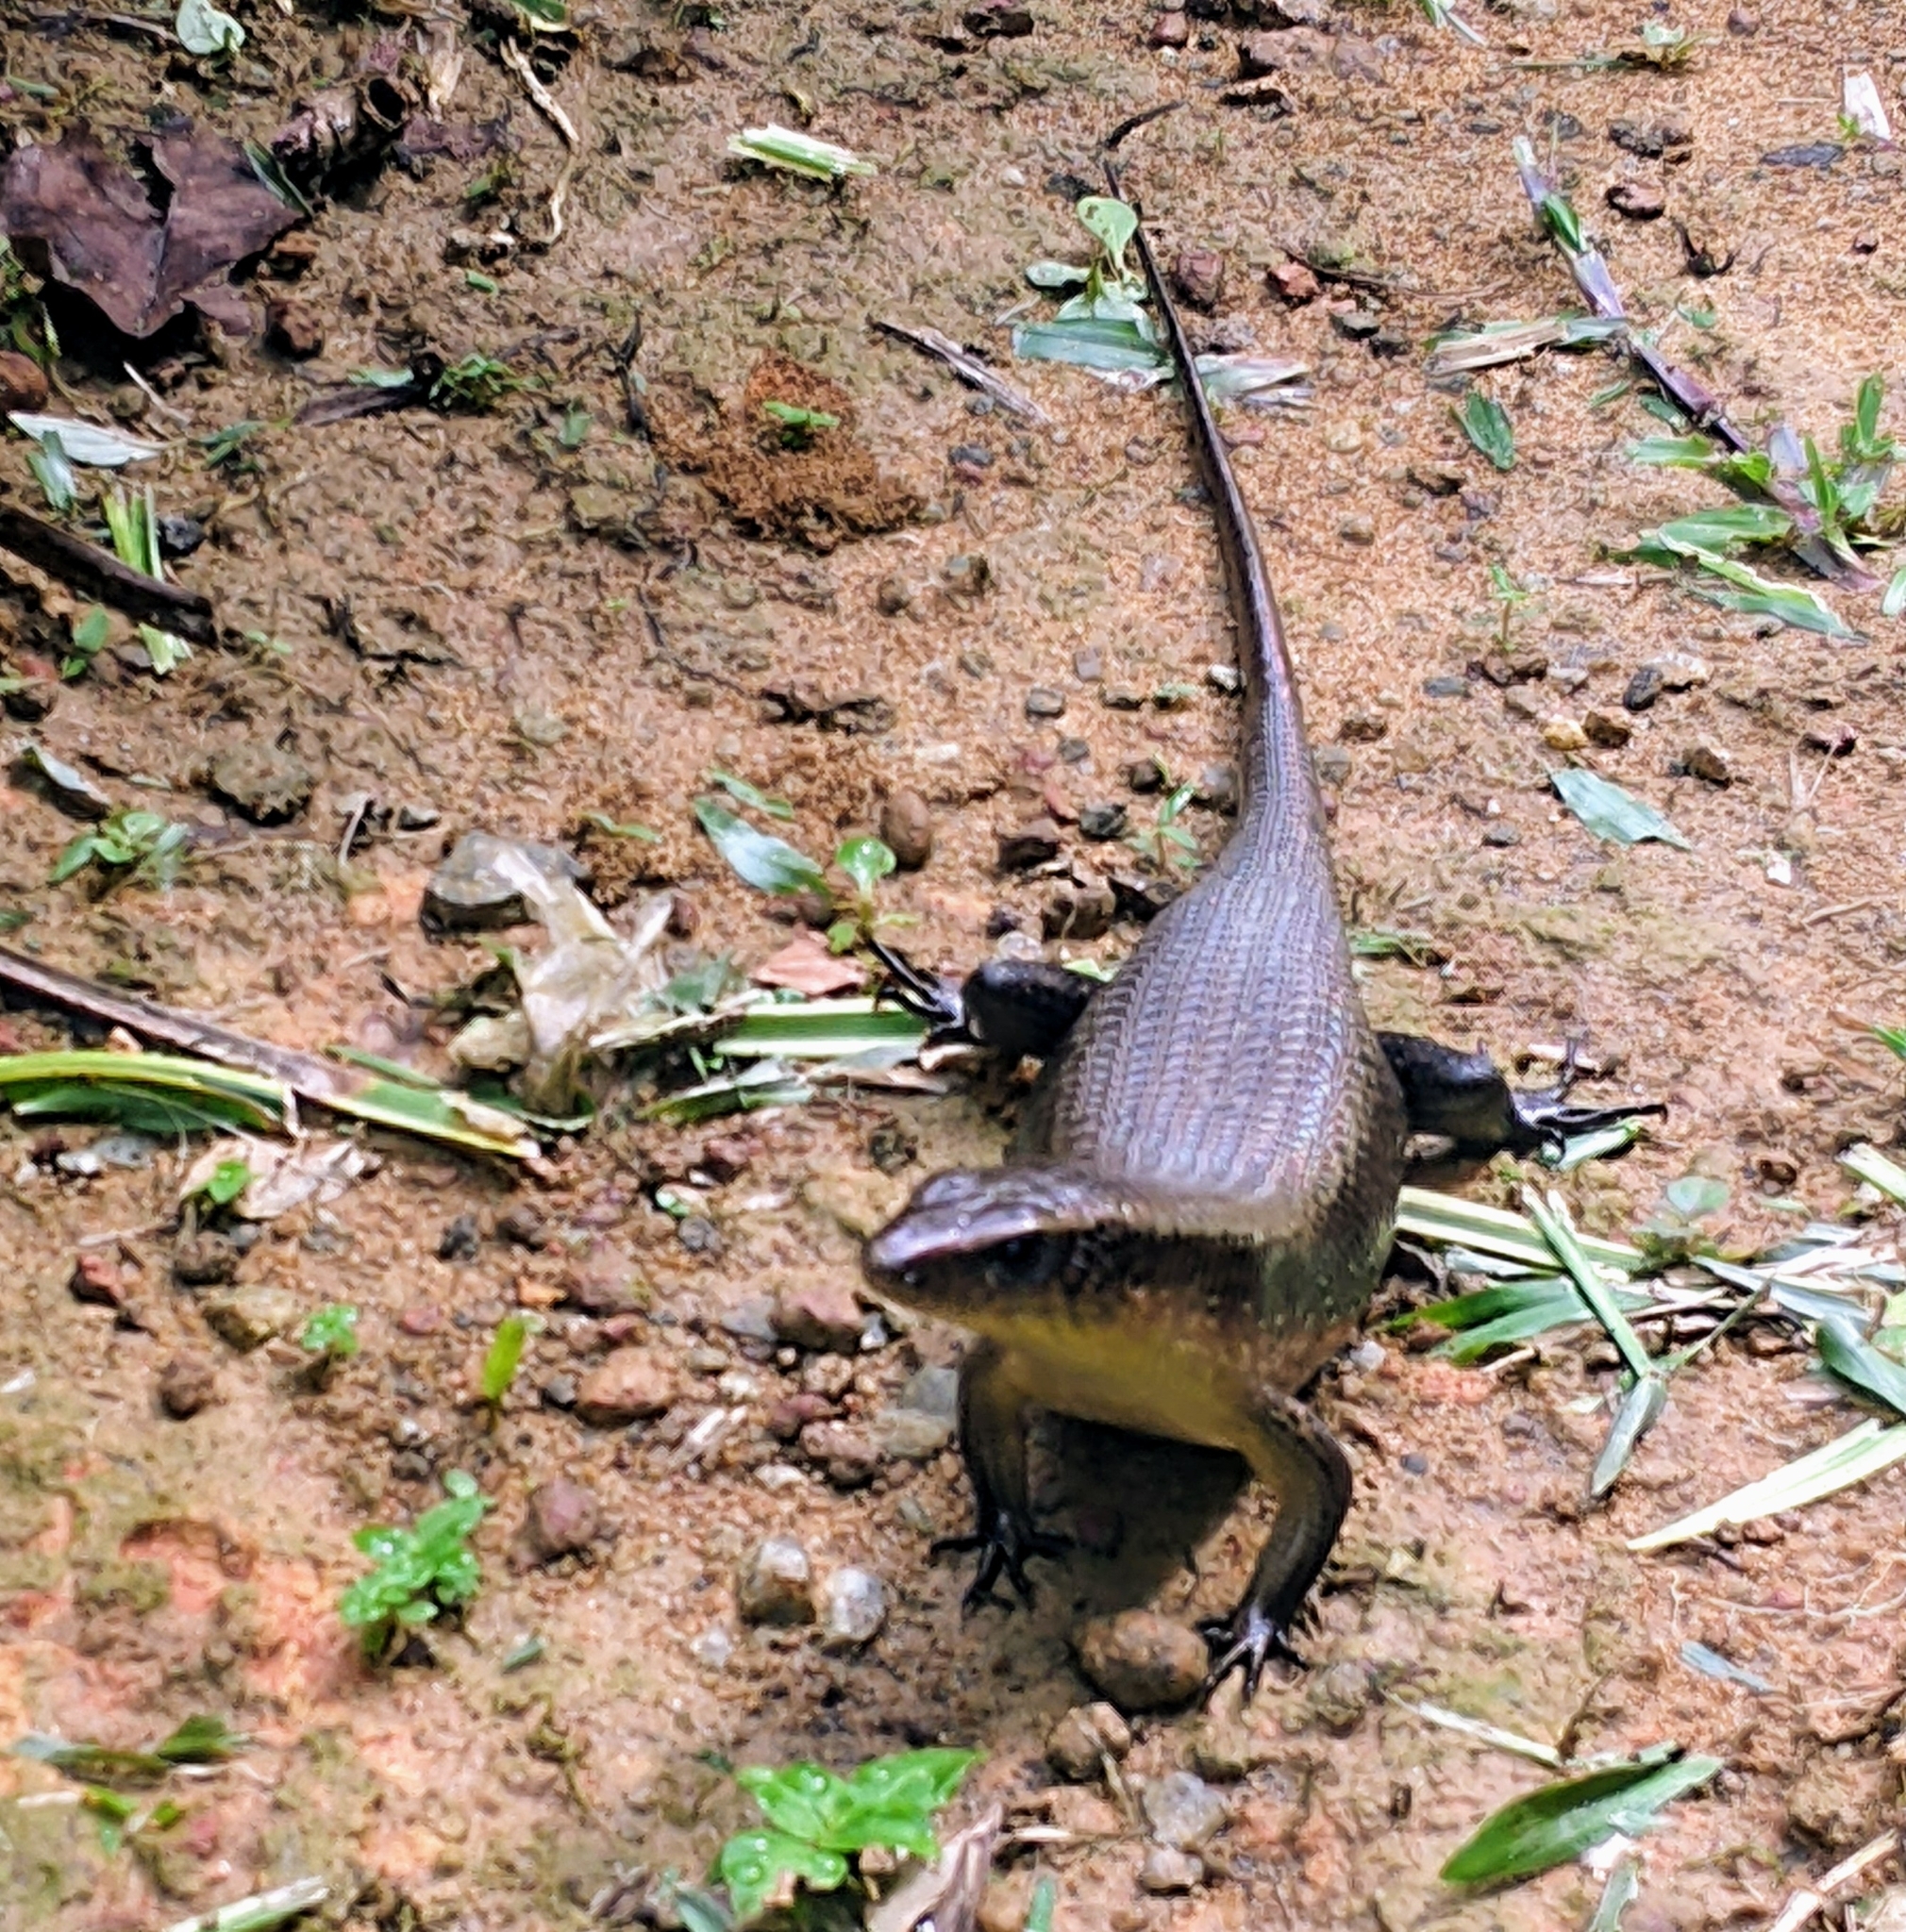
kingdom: Animalia
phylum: Chordata
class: Squamata
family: Scincidae
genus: Eutropis
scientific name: Eutropis multifasciata
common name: Common mabuya
